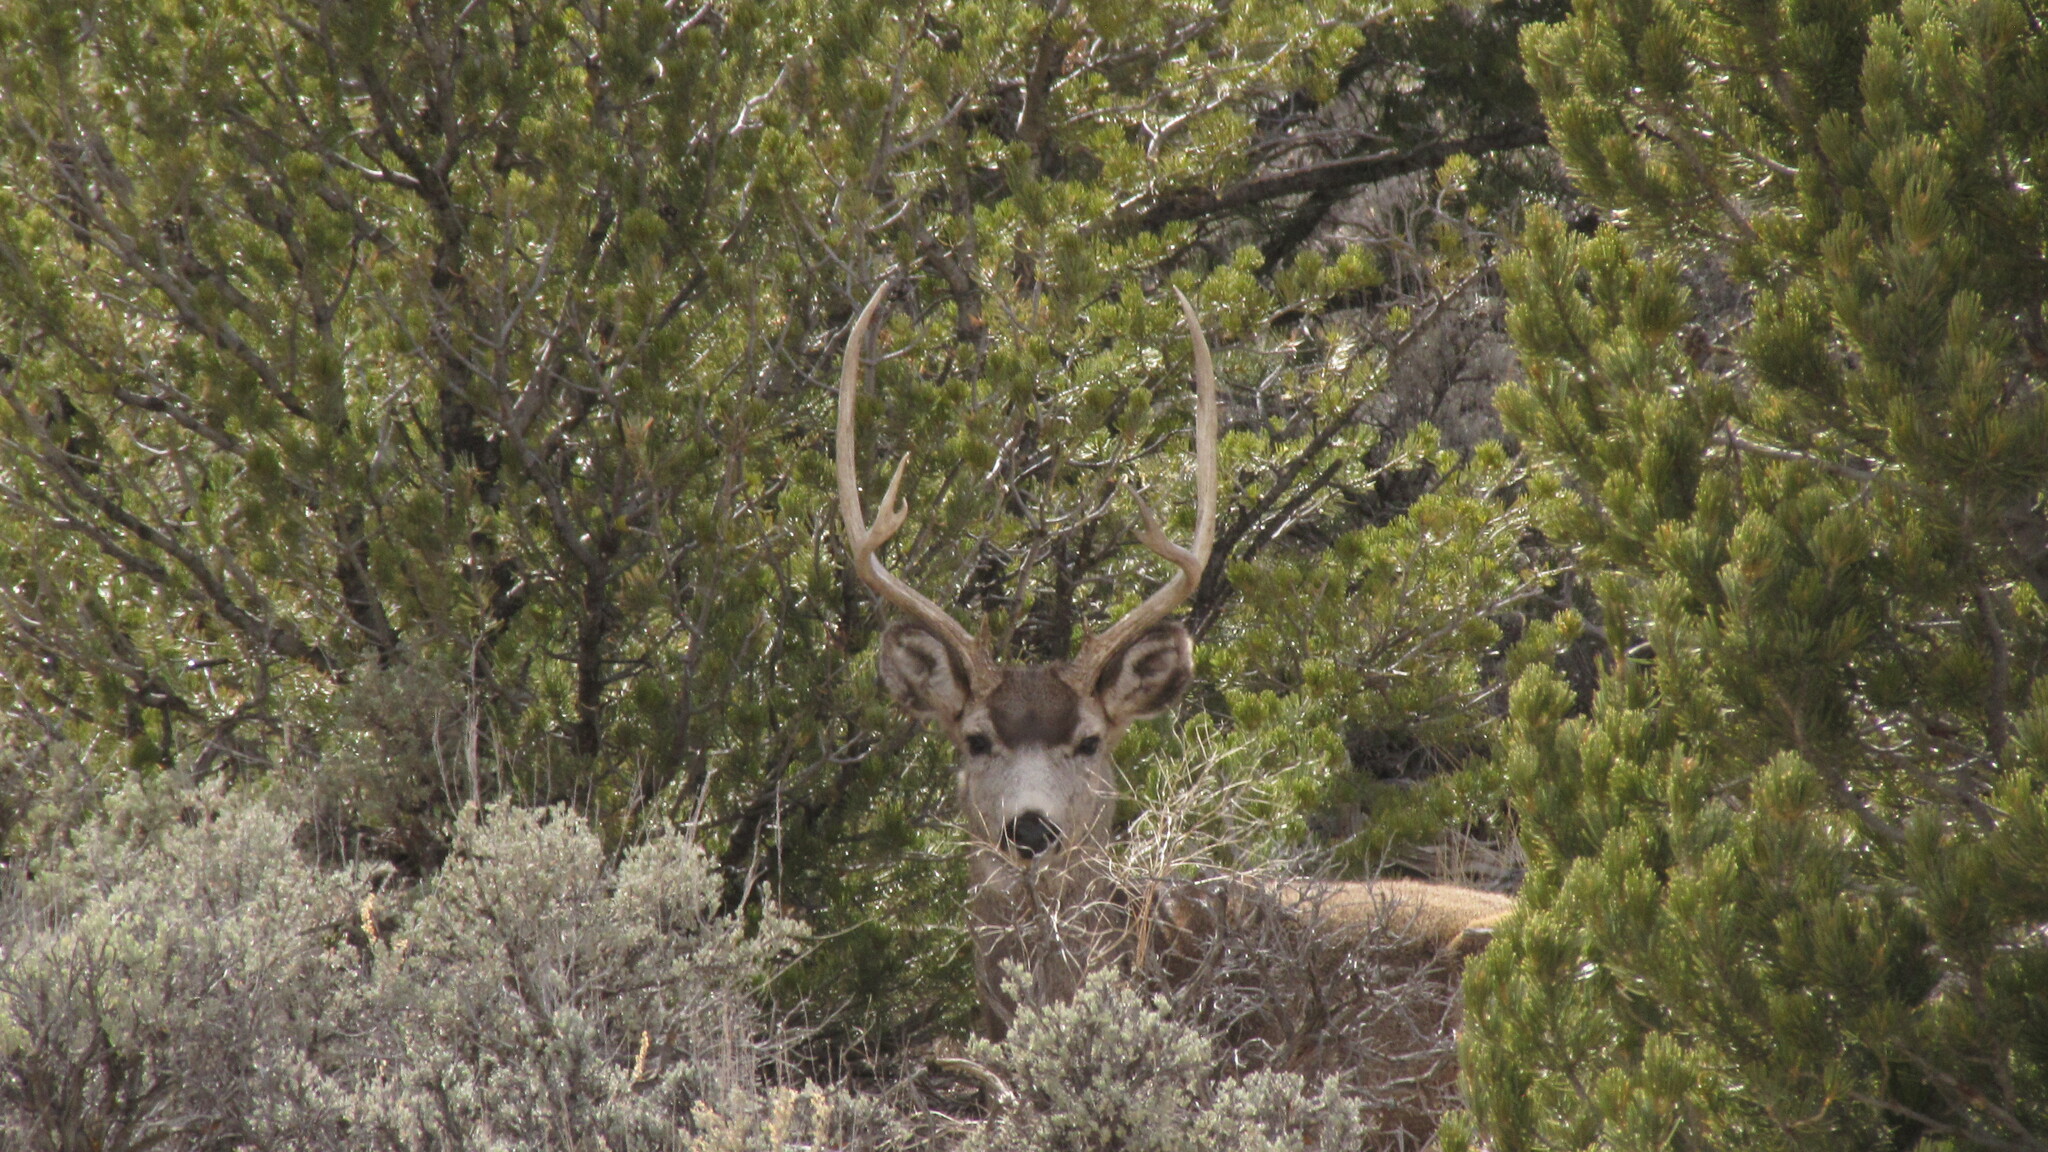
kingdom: Animalia
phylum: Chordata
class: Mammalia
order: Artiodactyla
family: Cervidae
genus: Odocoileus
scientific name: Odocoileus hemionus
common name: Mule deer
